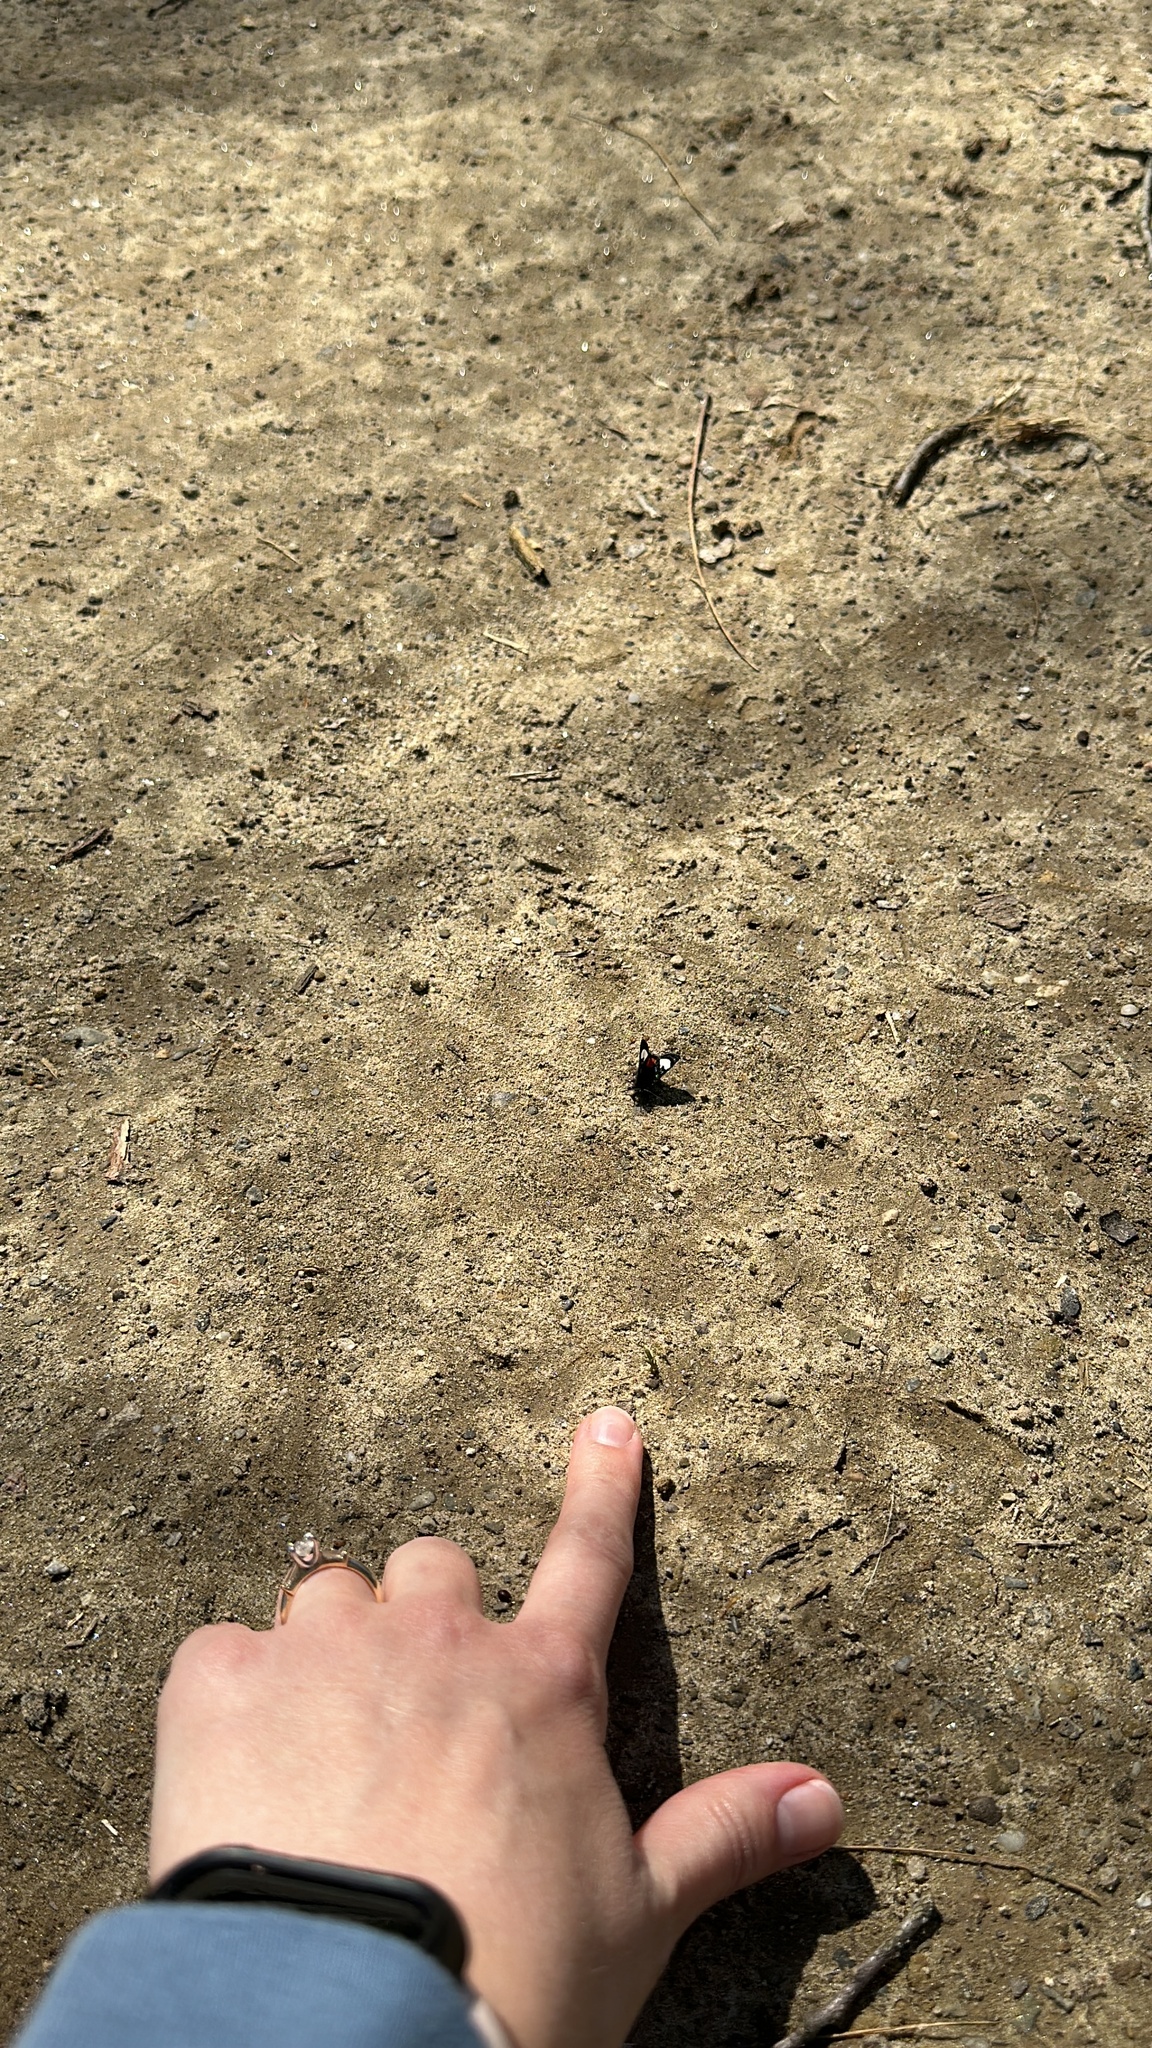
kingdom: Animalia
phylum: Arthropoda
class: Insecta
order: Lepidoptera
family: Noctuidae
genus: Psychomorpha
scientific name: Psychomorpha epimenis
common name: Grapevine epimenis moth
